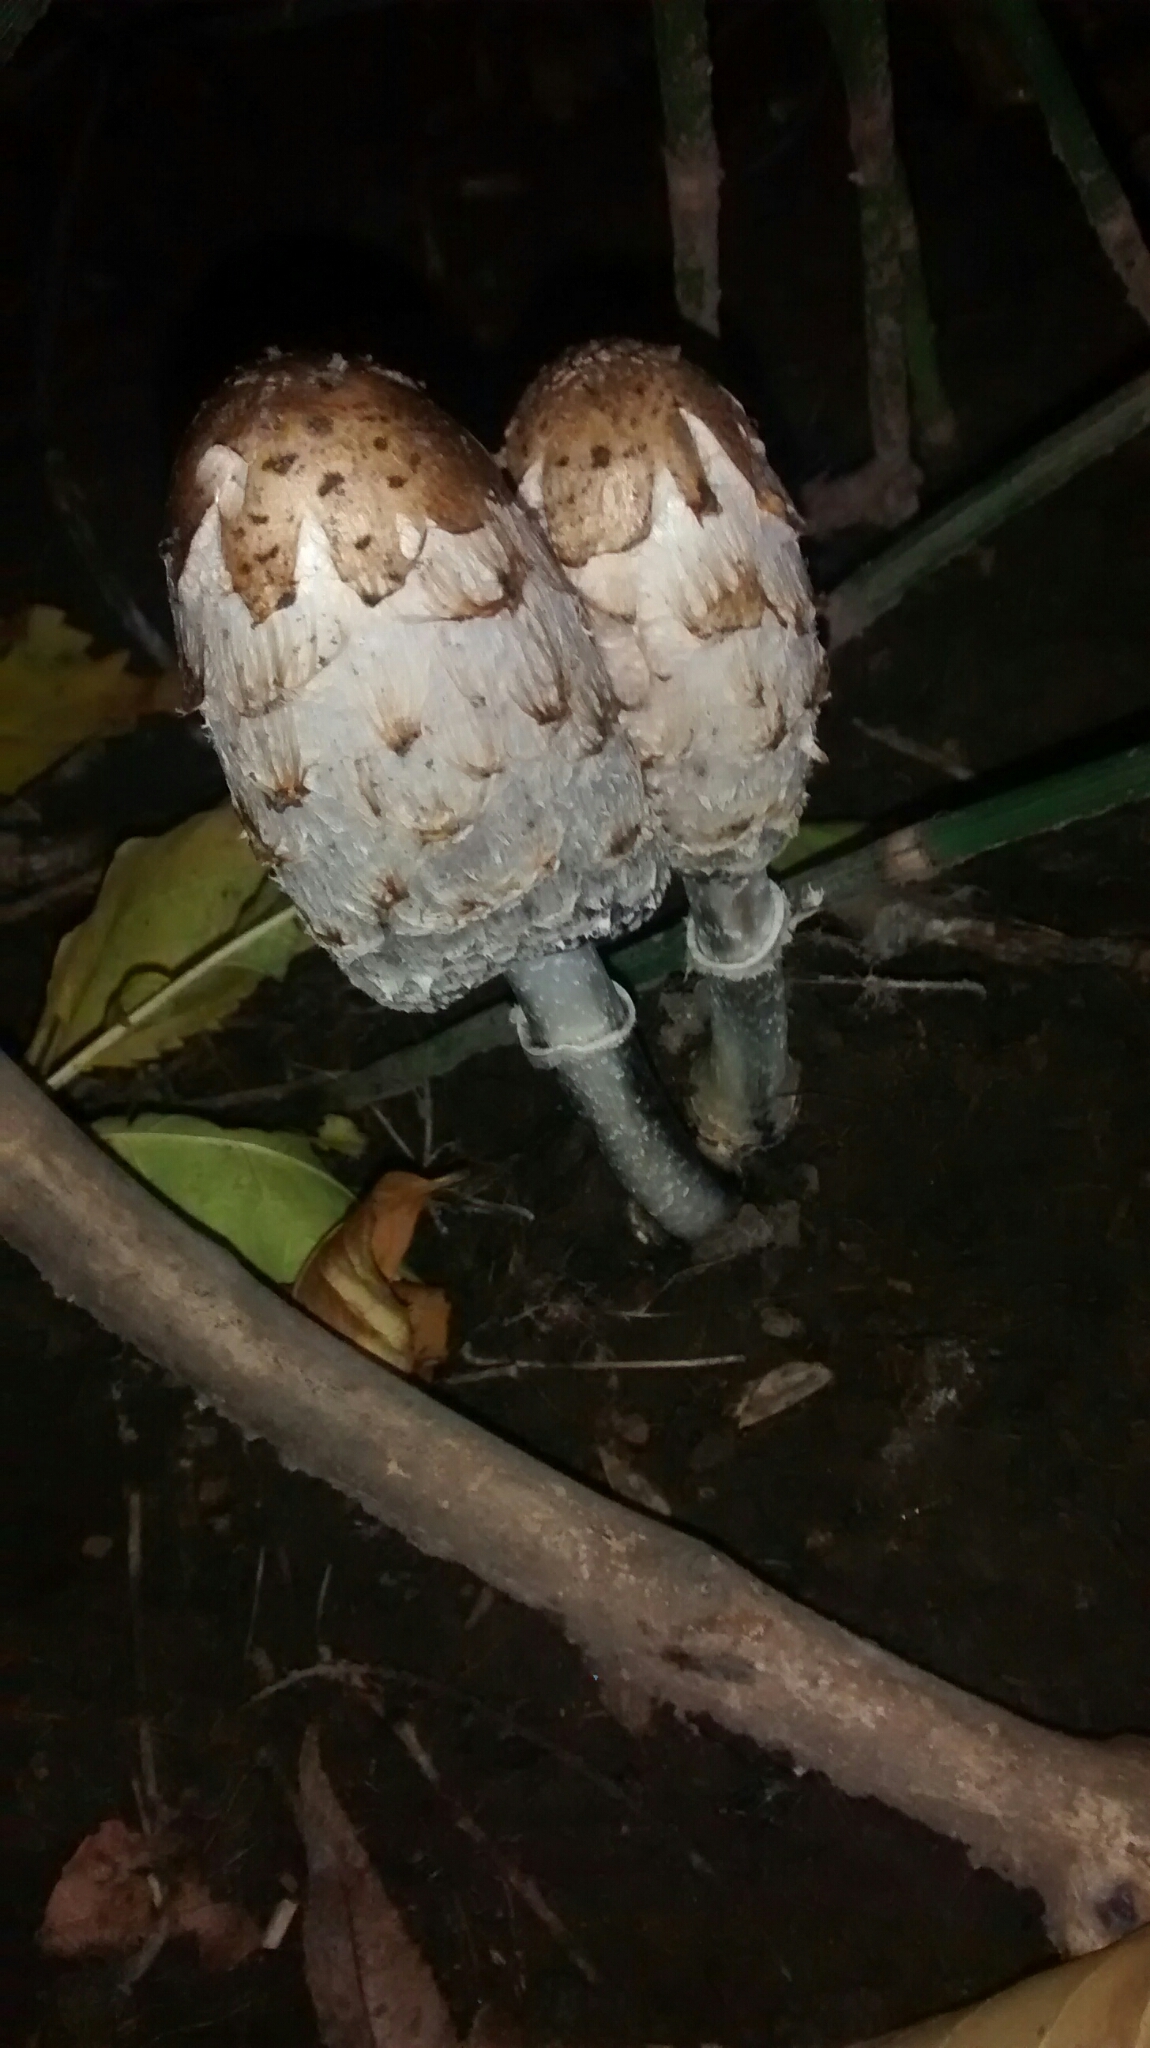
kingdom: Fungi
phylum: Basidiomycota
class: Agaricomycetes
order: Agaricales
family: Agaricaceae
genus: Coprinus
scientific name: Coprinus comatus
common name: Lawyer's wig
